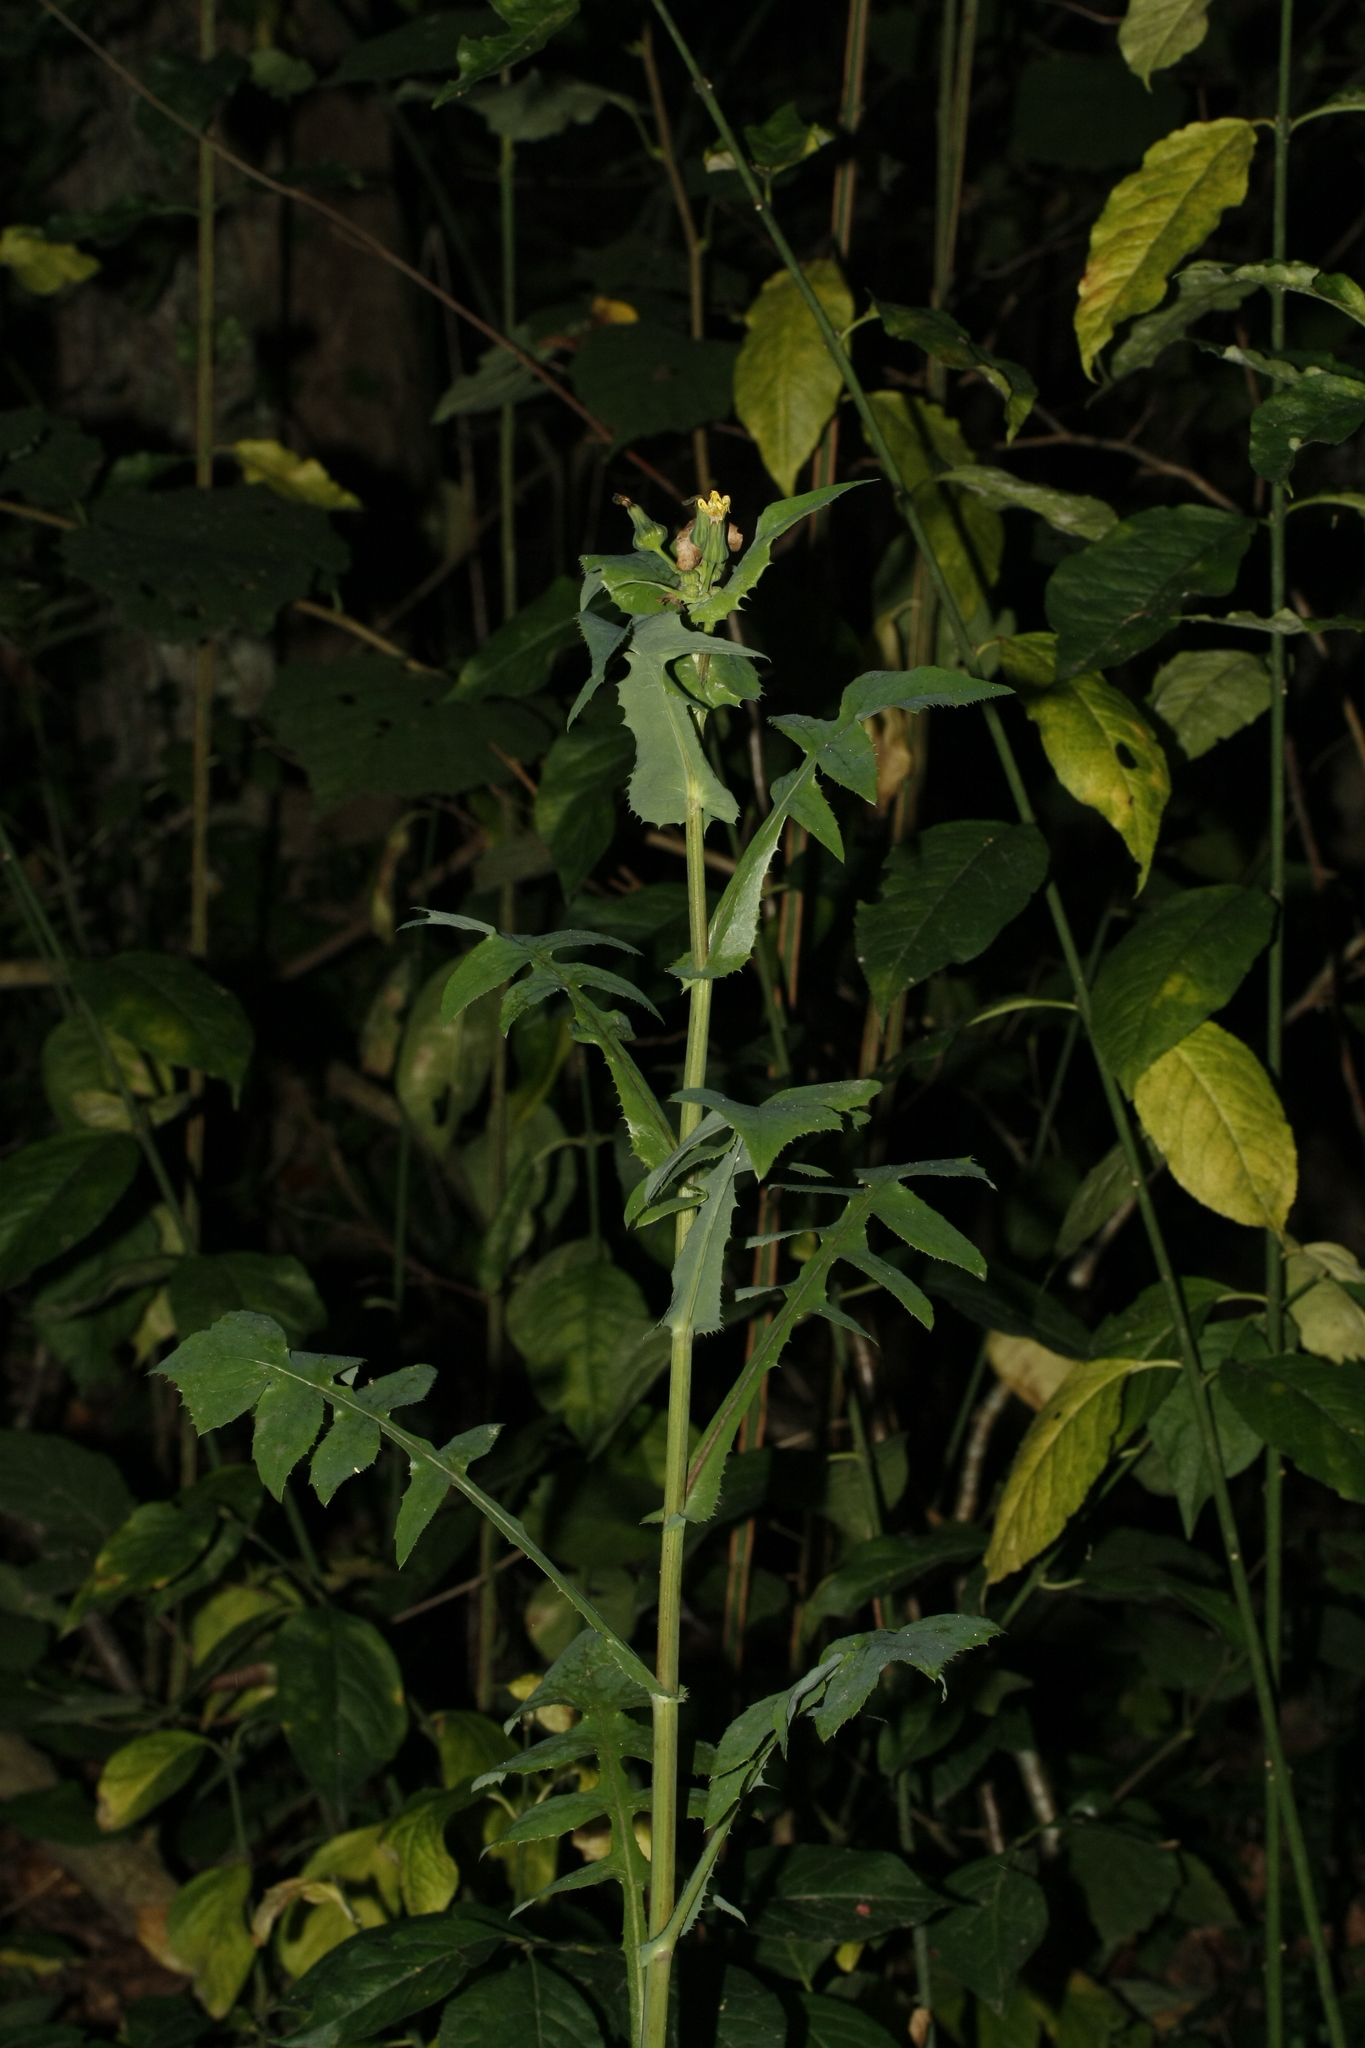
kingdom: Plantae
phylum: Tracheophyta
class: Magnoliopsida
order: Asterales
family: Asteraceae
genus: Sonchus
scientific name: Sonchus oleraceus
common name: Common sowthistle
